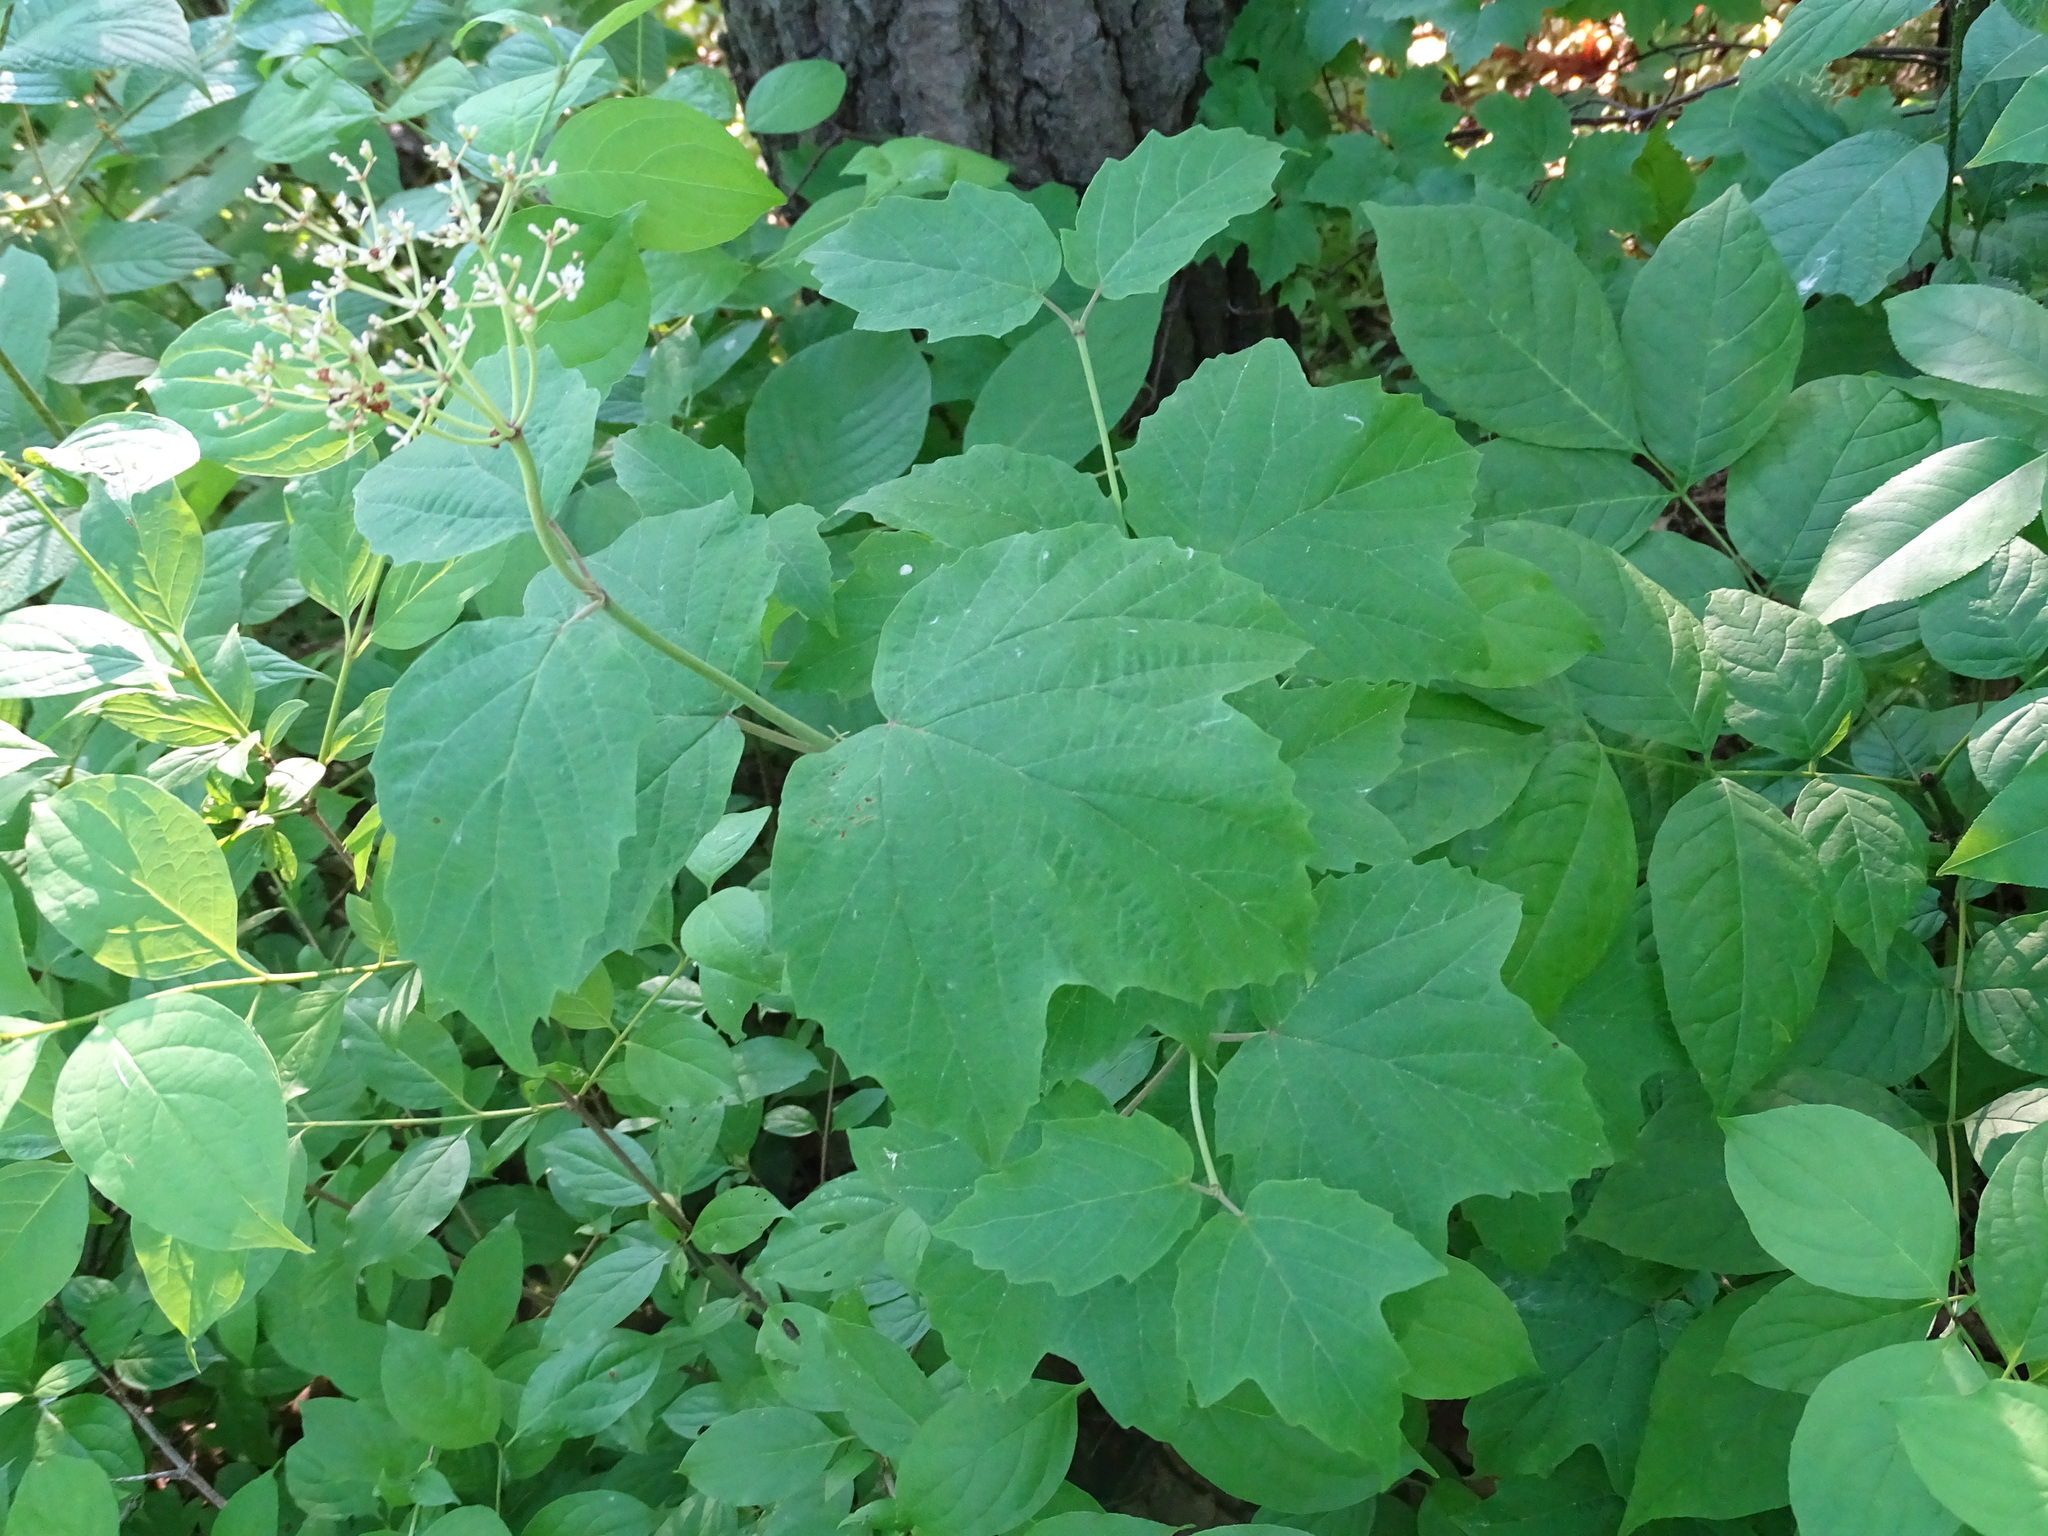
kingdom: Plantae
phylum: Tracheophyta
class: Magnoliopsida
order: Dipsacales
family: Viburnaceae
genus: Viburnum
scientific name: Viburnum acerifolium
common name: Dockmackie
